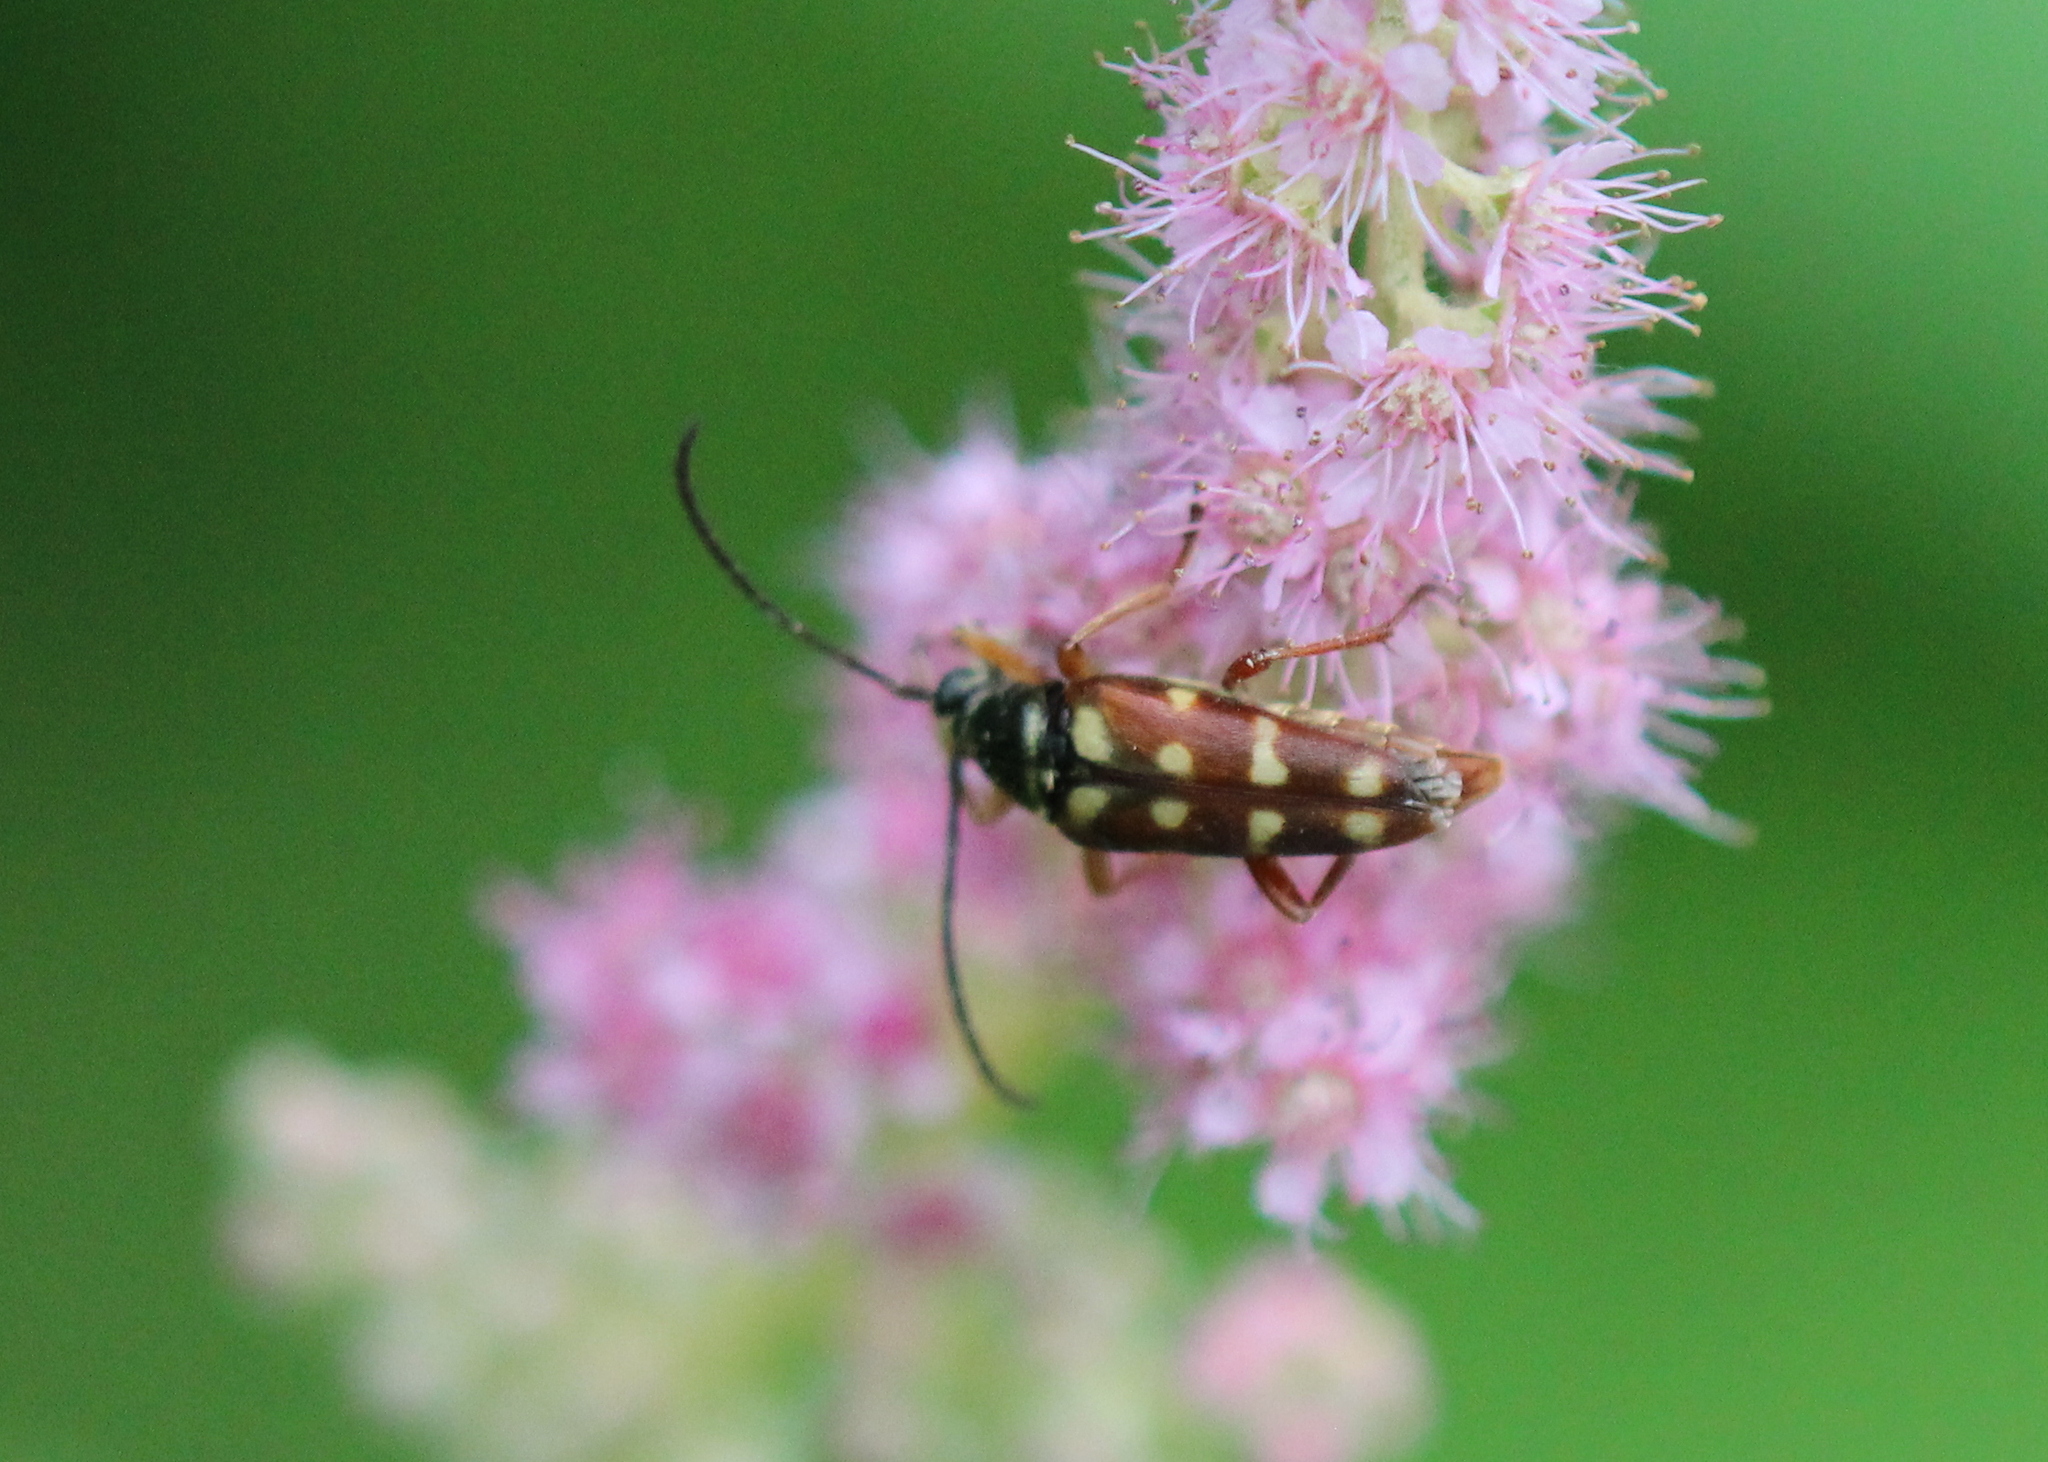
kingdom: Animalia
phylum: Arthropoda
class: Insecta
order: Coleoptera
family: Cerambycidae
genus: Typocerus
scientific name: Typocerus velutinus
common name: Banded longhorn beetle
